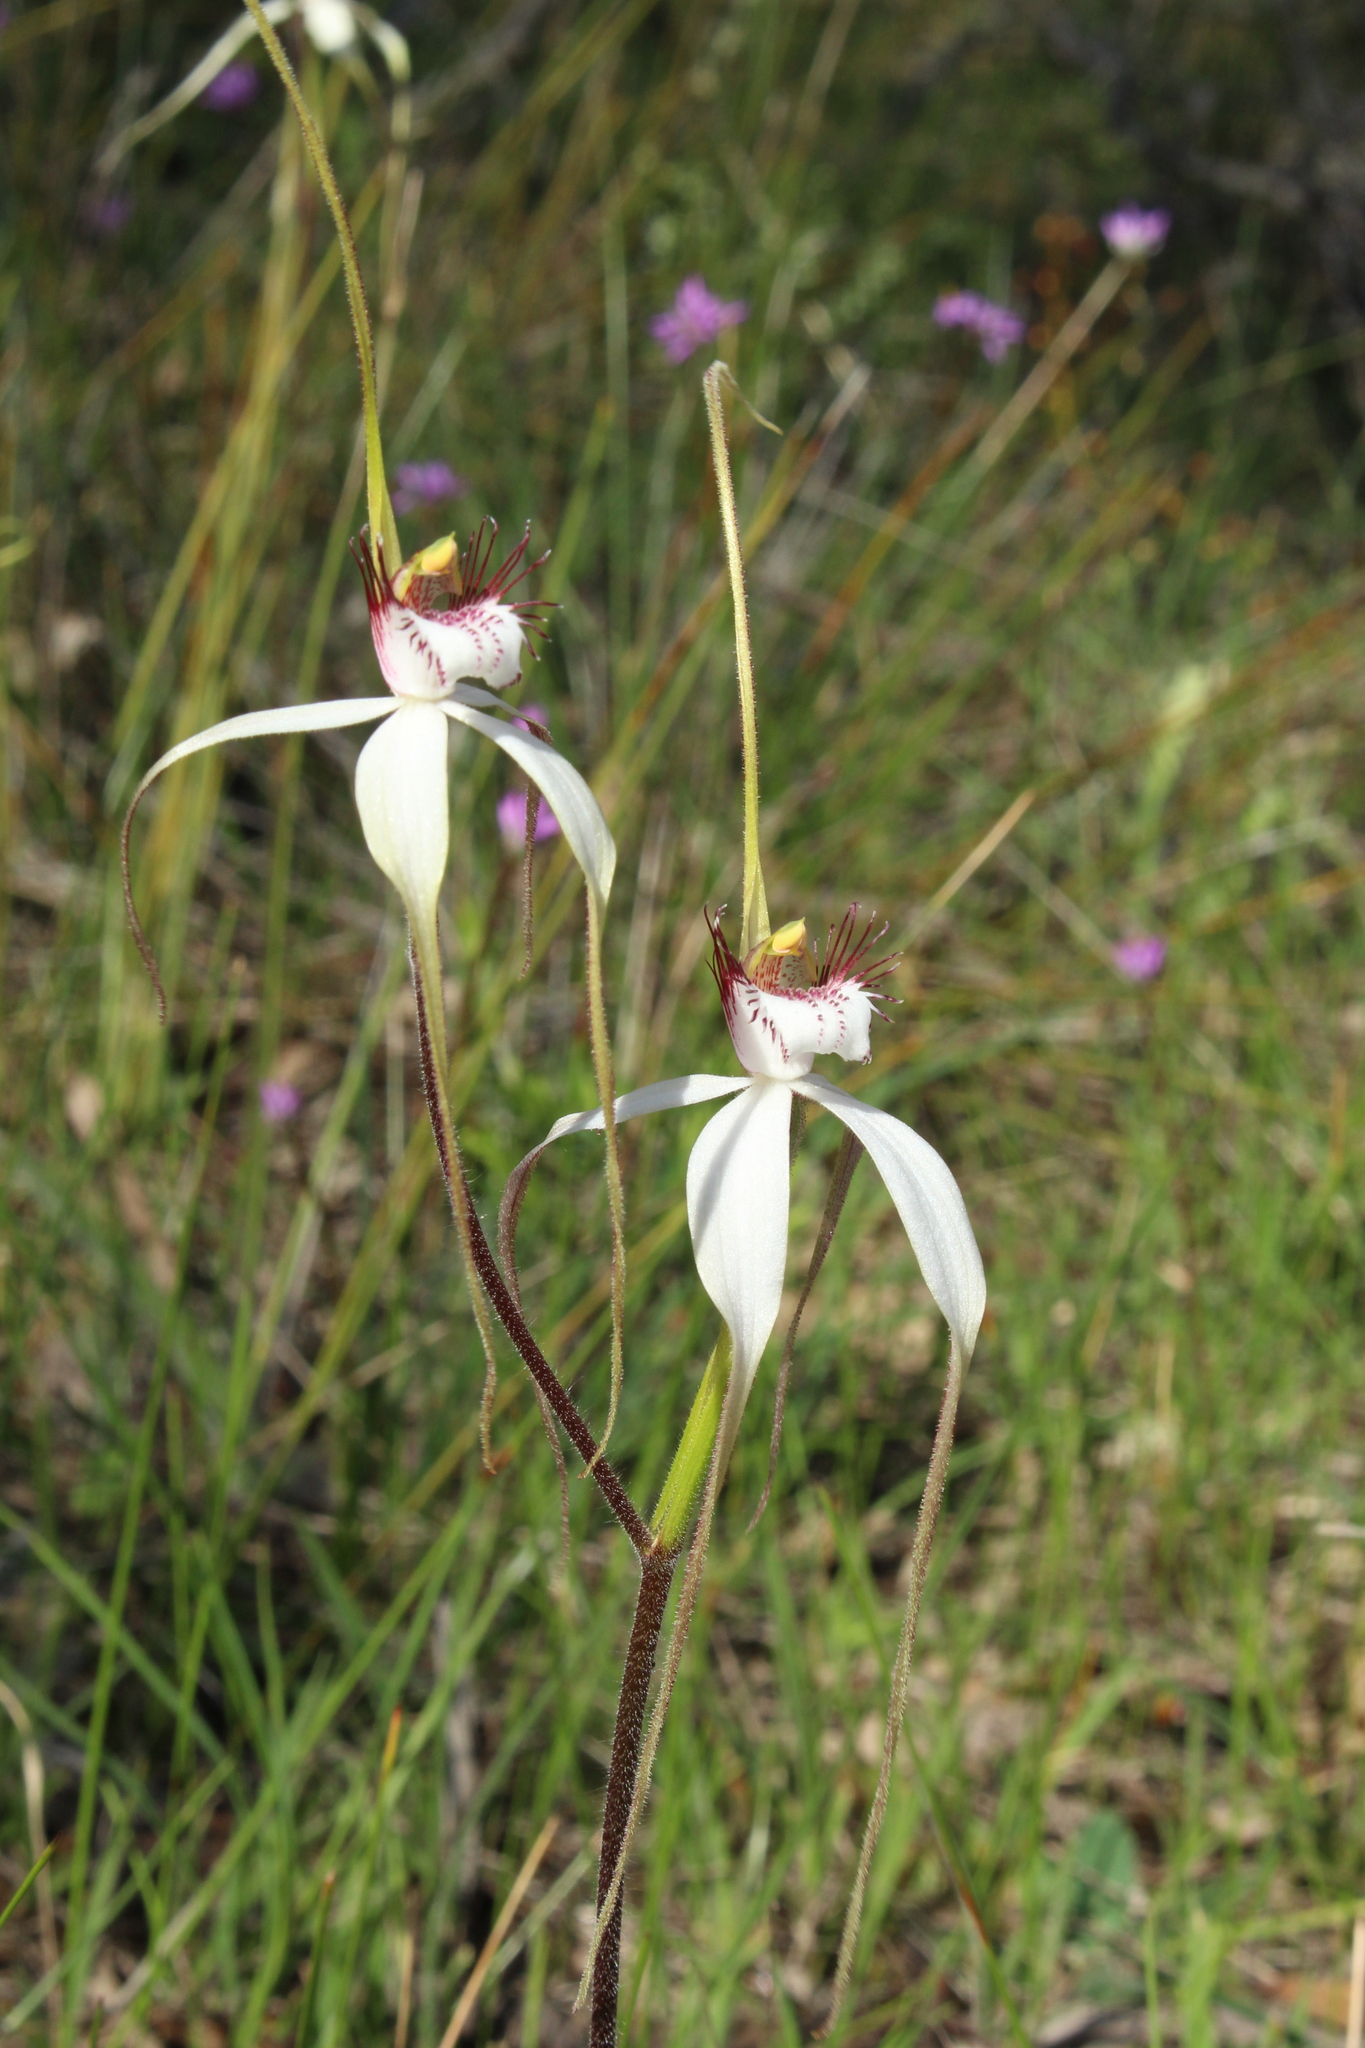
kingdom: Plantae
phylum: Tracheophyta
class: Liliopsida
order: Asparagales
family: Orchidaceae
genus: Caladenia
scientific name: Caladenia longicauda
